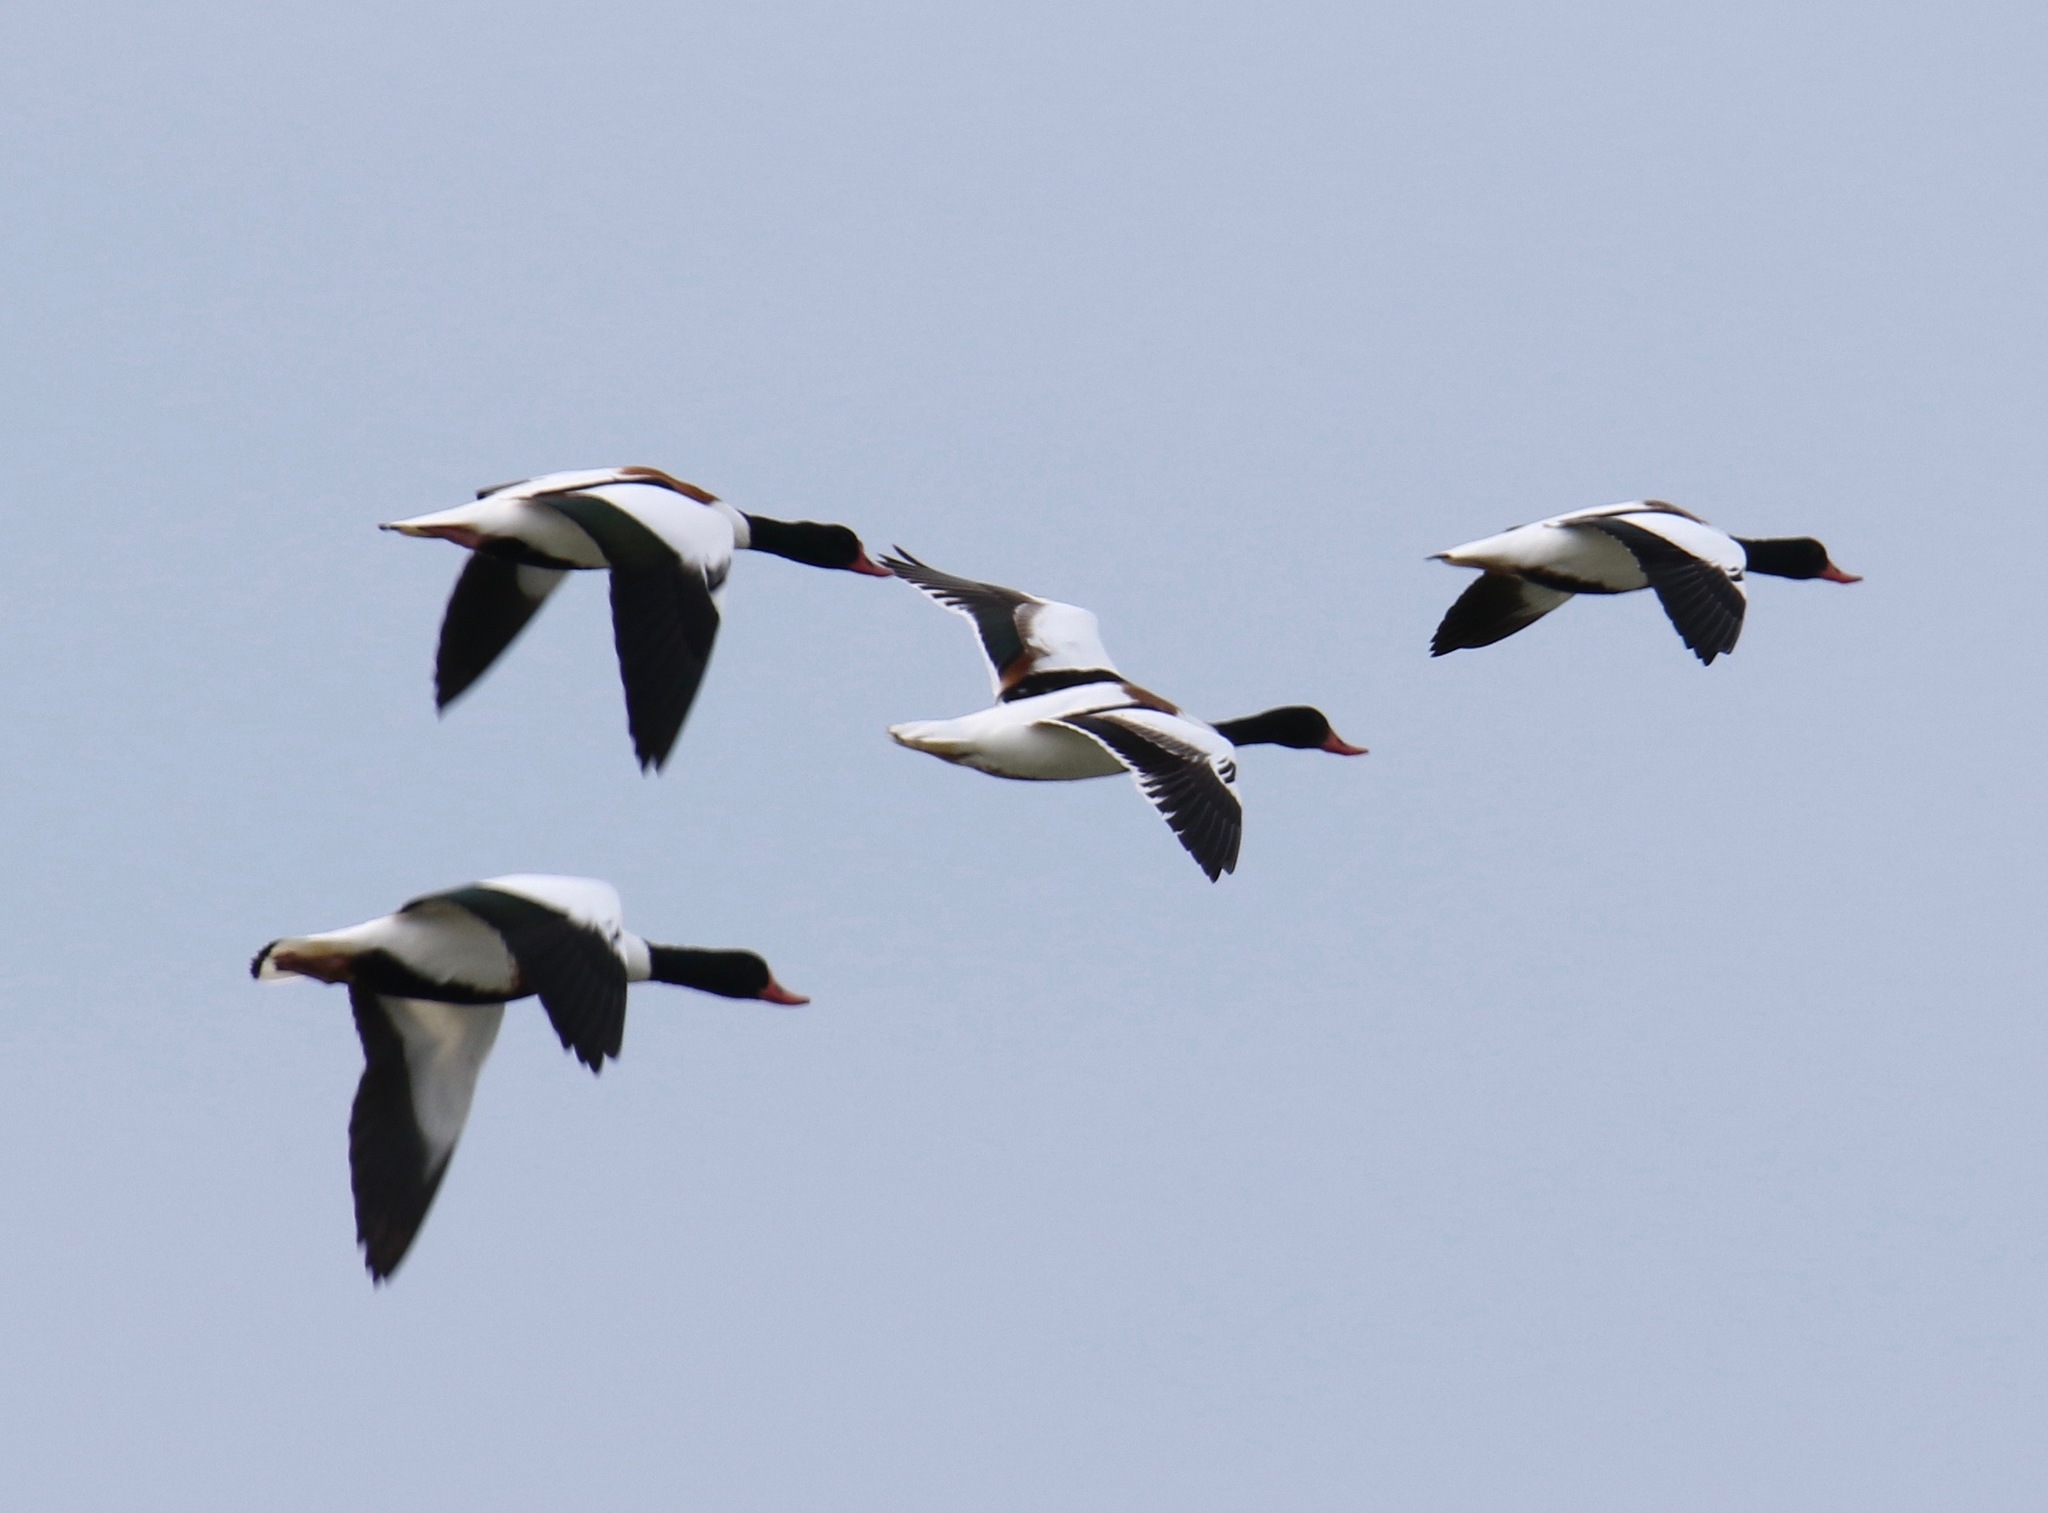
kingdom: Animalia
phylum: Chordata
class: Aves
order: Anseriformes
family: Anatidae
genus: Tadorna
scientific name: Tadorna tadorna
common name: Common shelduck
